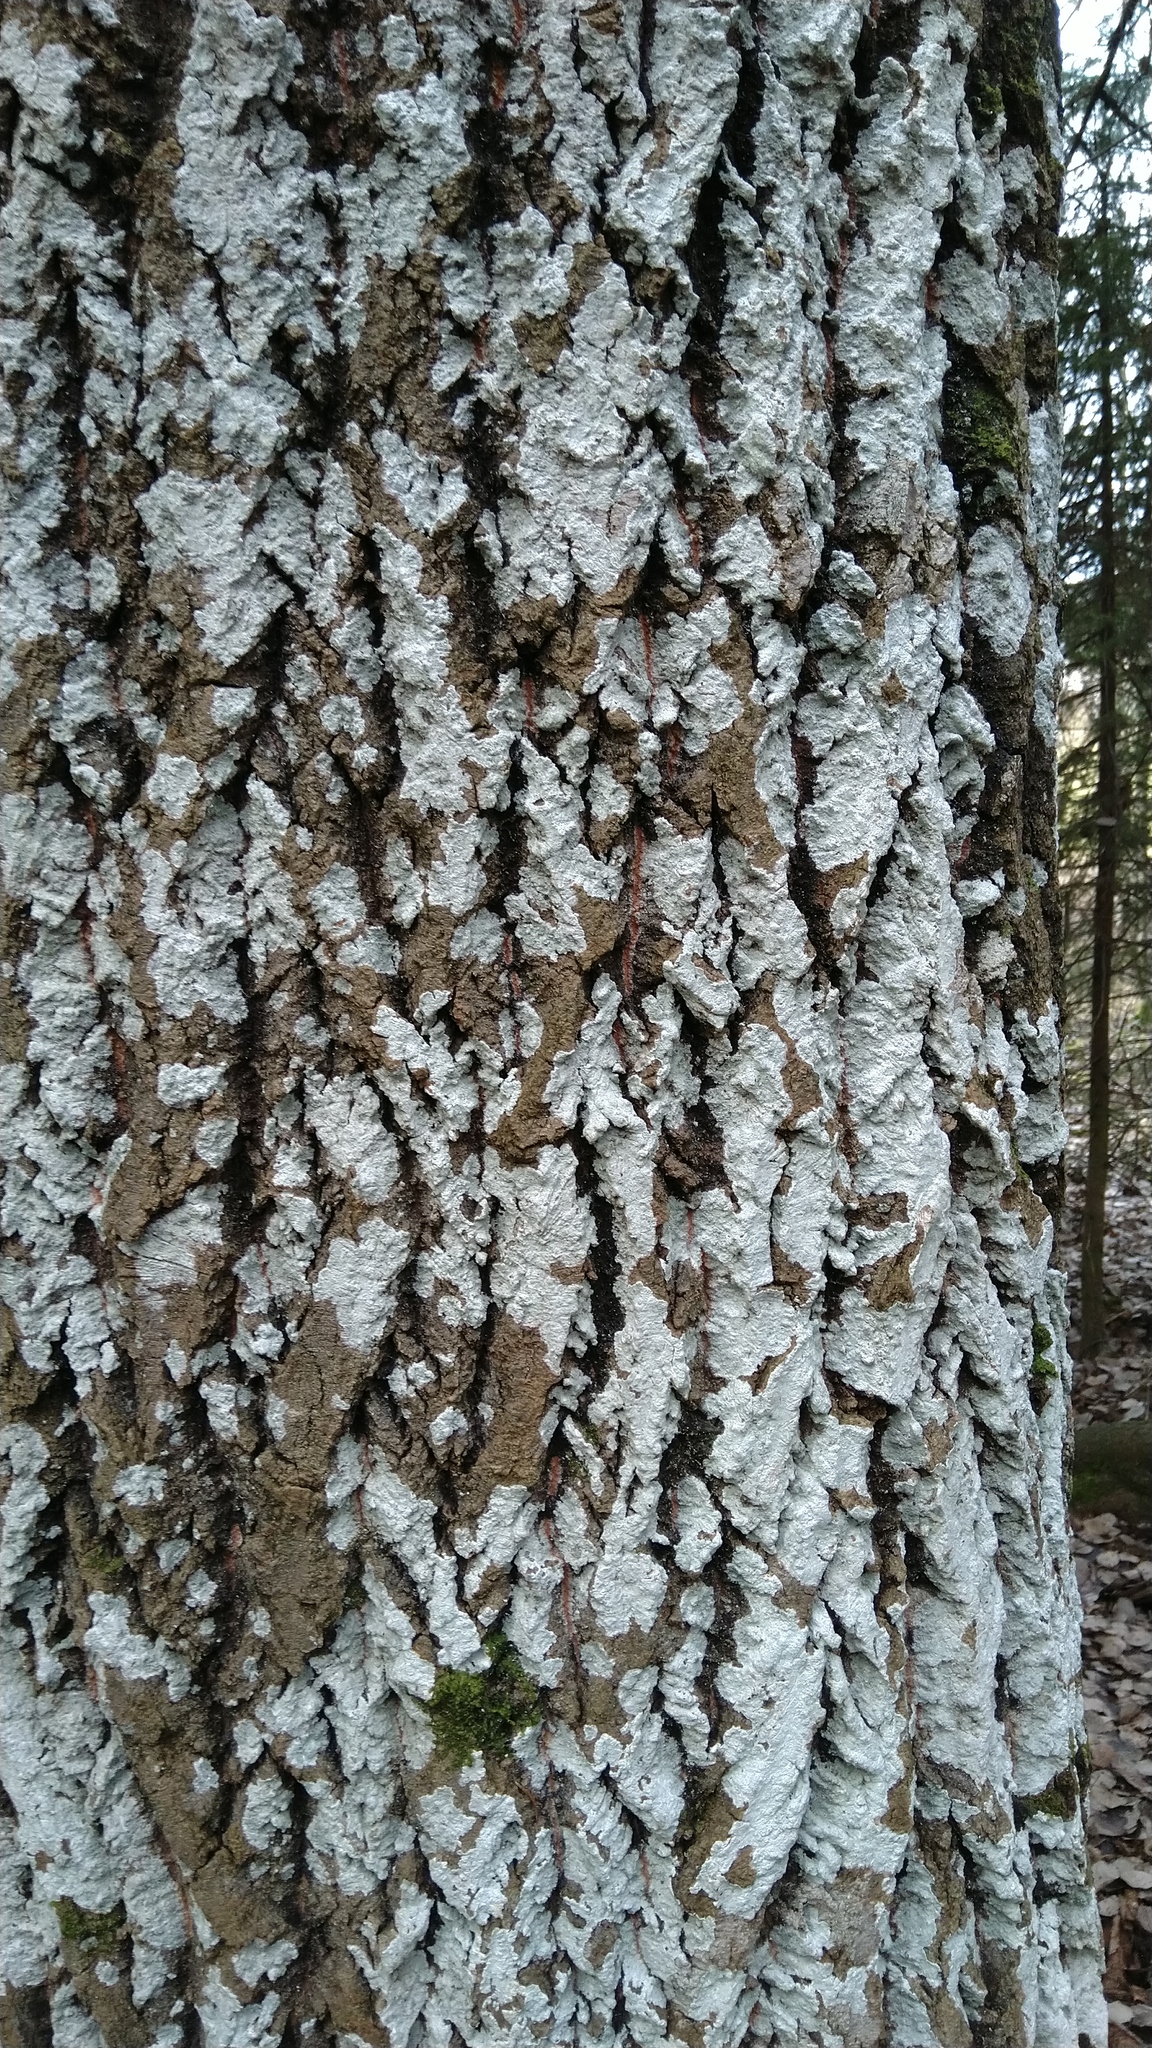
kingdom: Fungi
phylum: Ascomycota
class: Lecanoromycetes
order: Ostropales
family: Phlyctidaceae
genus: Phlyctis
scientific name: Phlyctis argena
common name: Whitewash lichen
